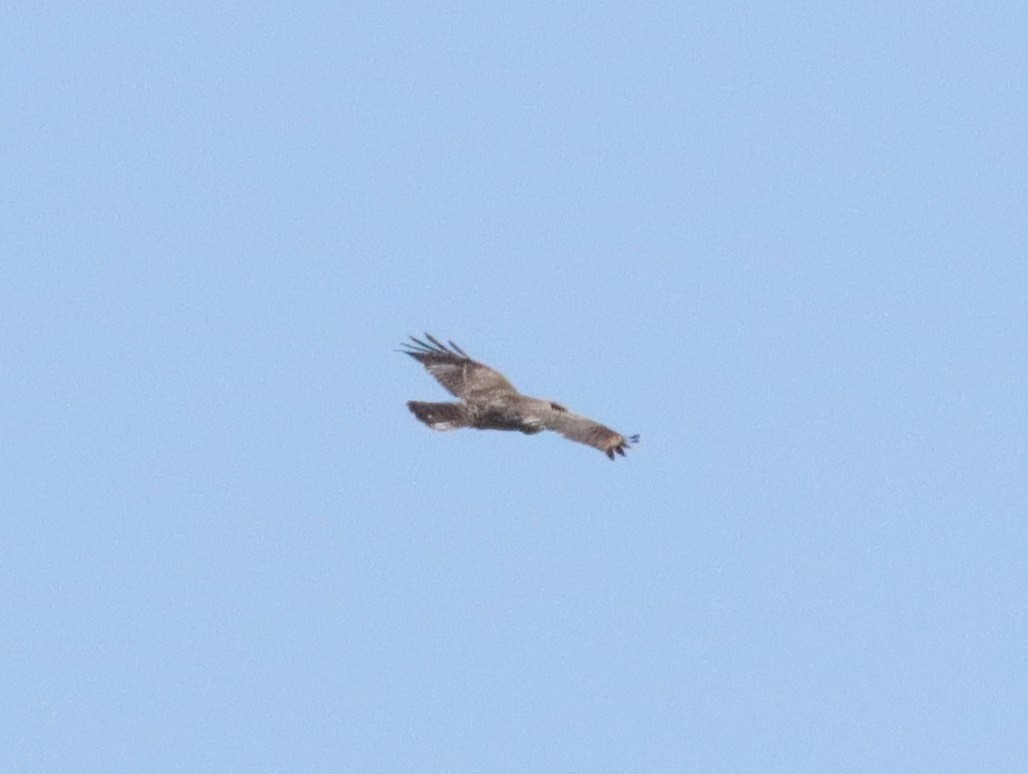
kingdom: Animalia
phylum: Chordata
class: Aves
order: Accipitriformes
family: Accipitridae
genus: Buteo
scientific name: Buteo lineatus
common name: Red-shouldered hawk
